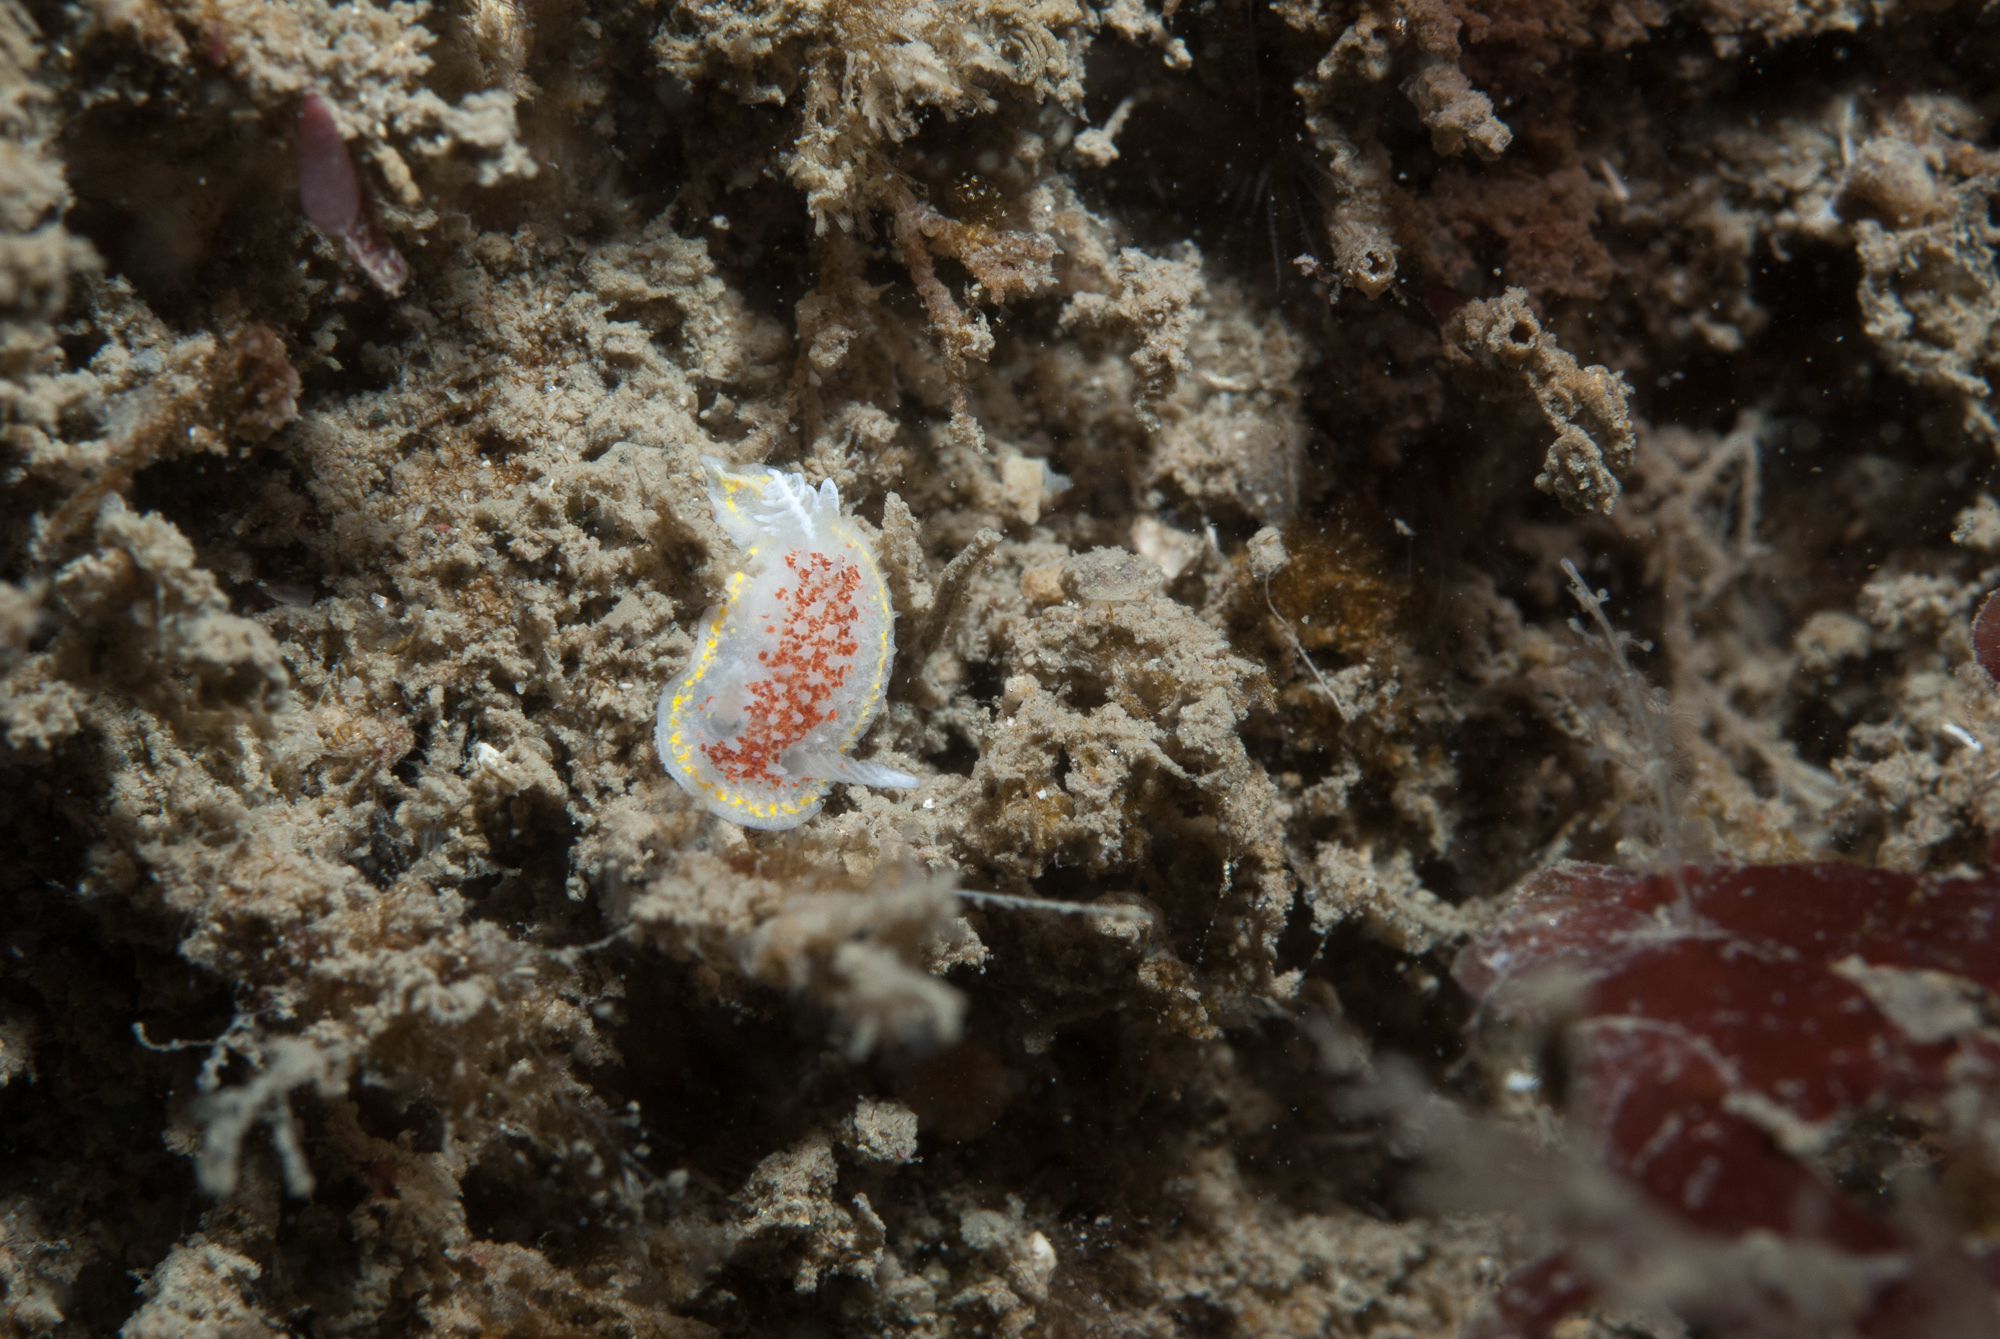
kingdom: Animalia
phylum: Mollusca
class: Gastropoda
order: Nudibranchia
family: Calycidorididae
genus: Diaphorodoris
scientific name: Diaphorodoris luteocincta
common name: Fried egg nudibranch
